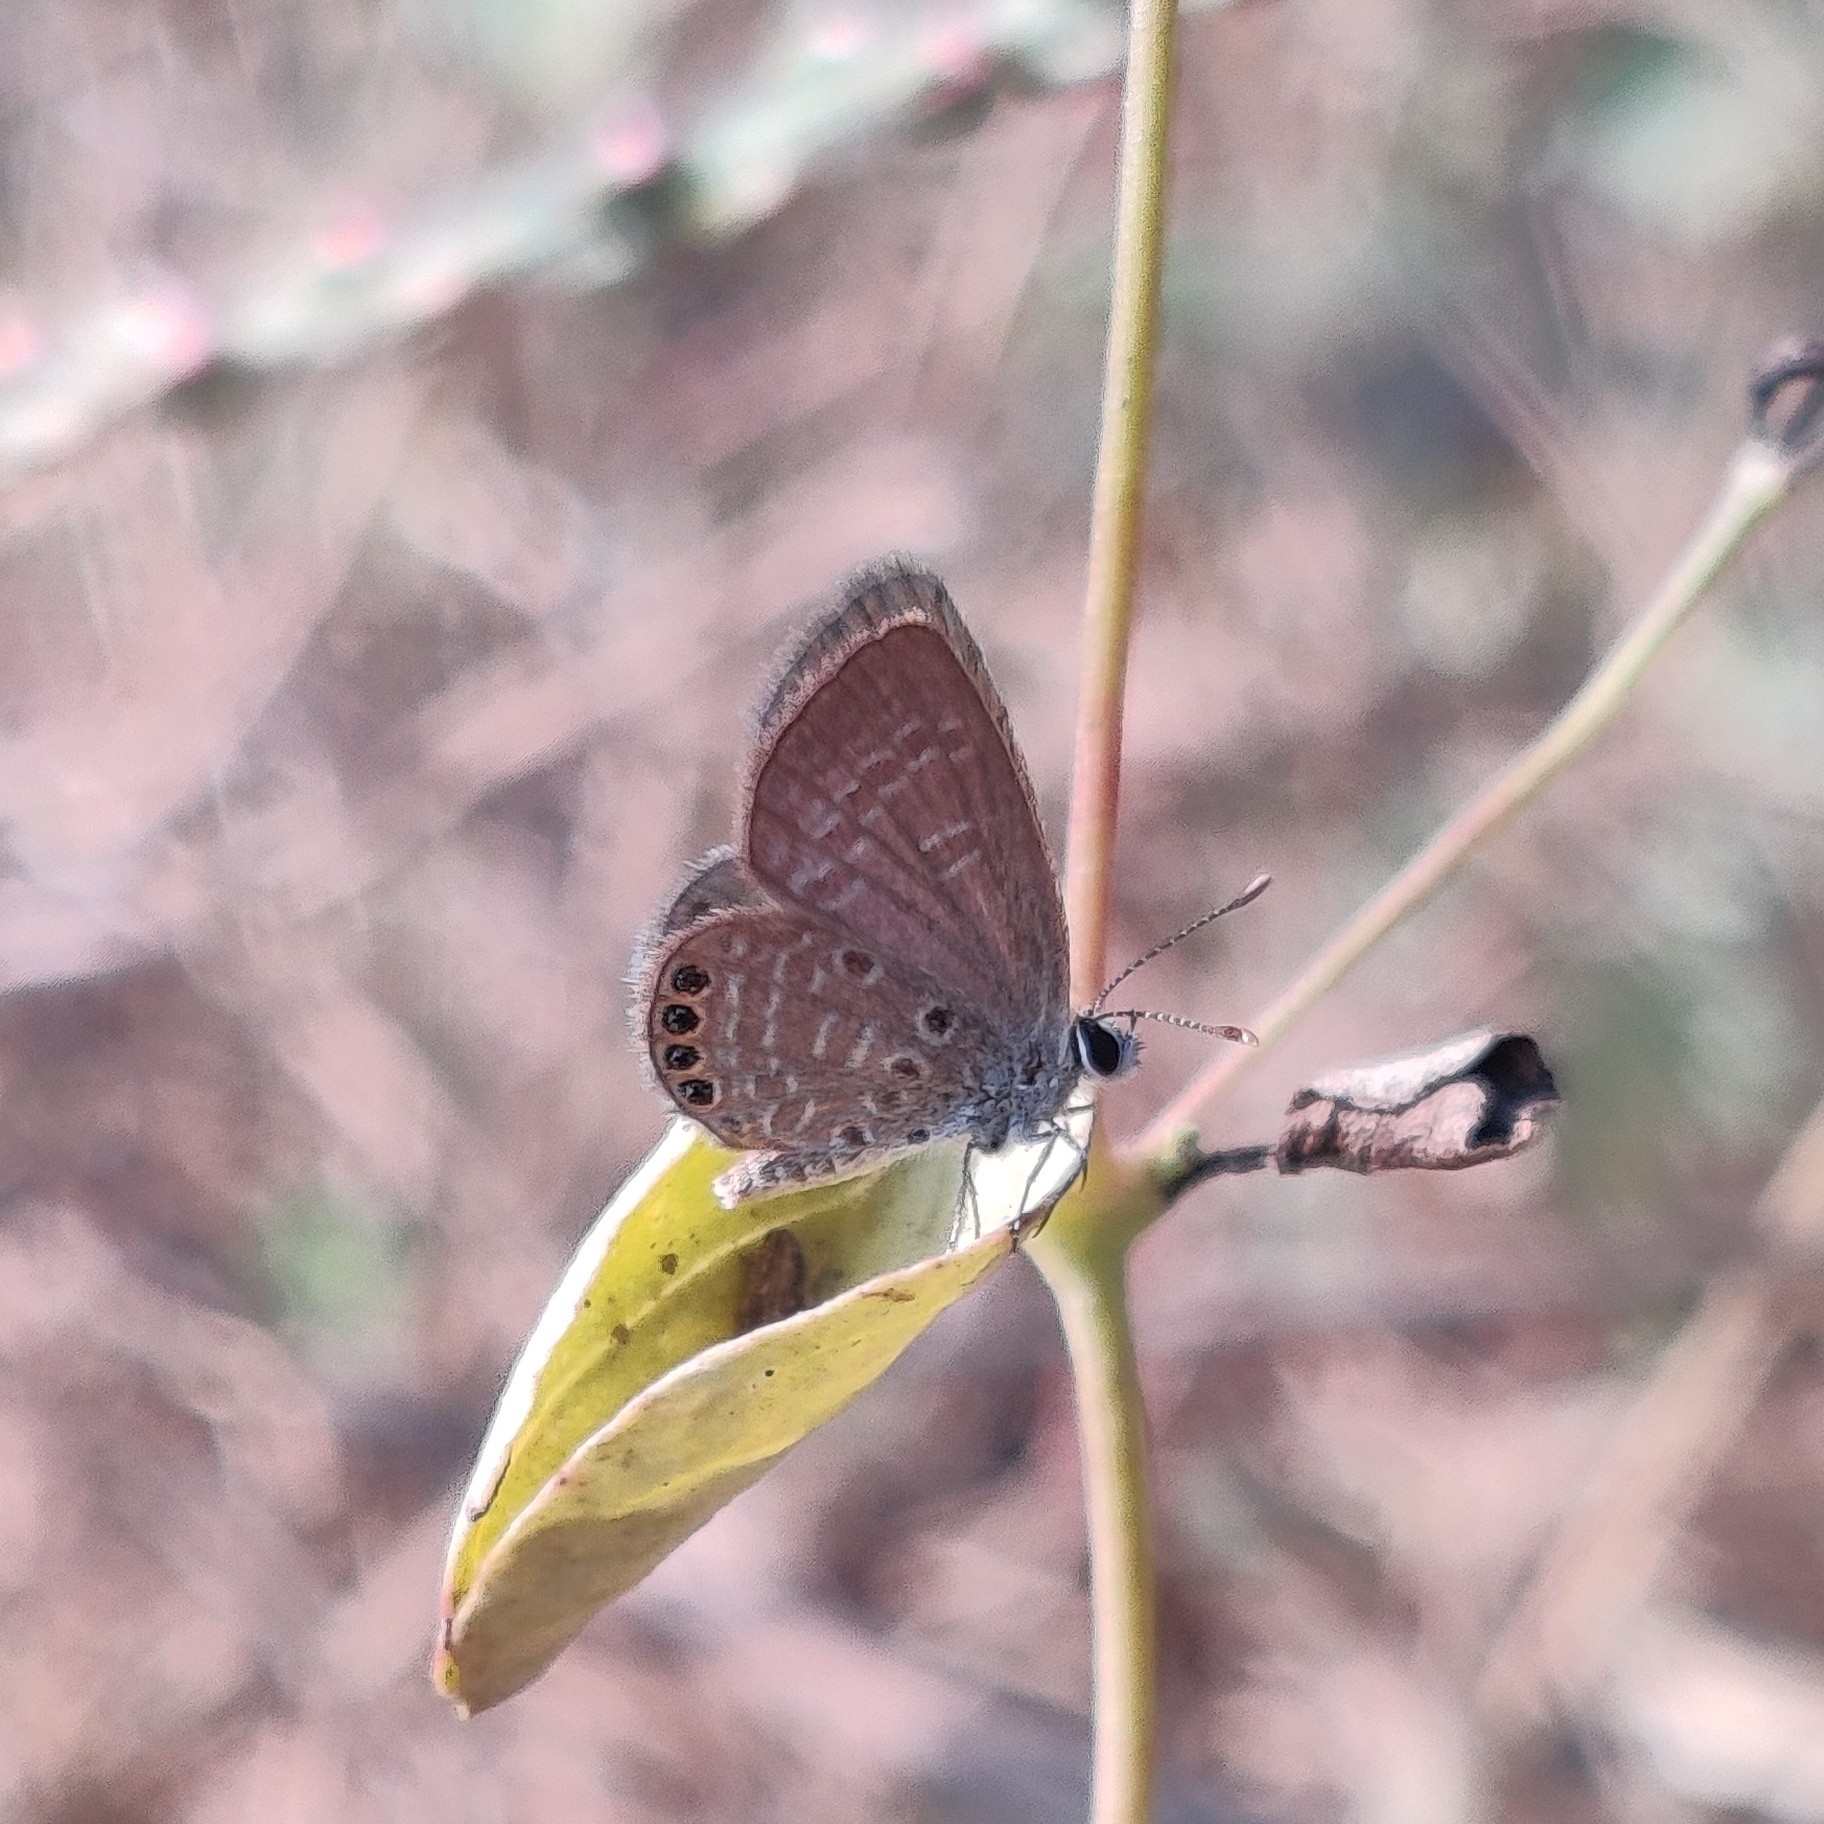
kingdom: Animalia
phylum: Arthropoda
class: Insecta
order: Lepidoptera
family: Lycaenidae
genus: Freyeria
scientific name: Freyeria putli
